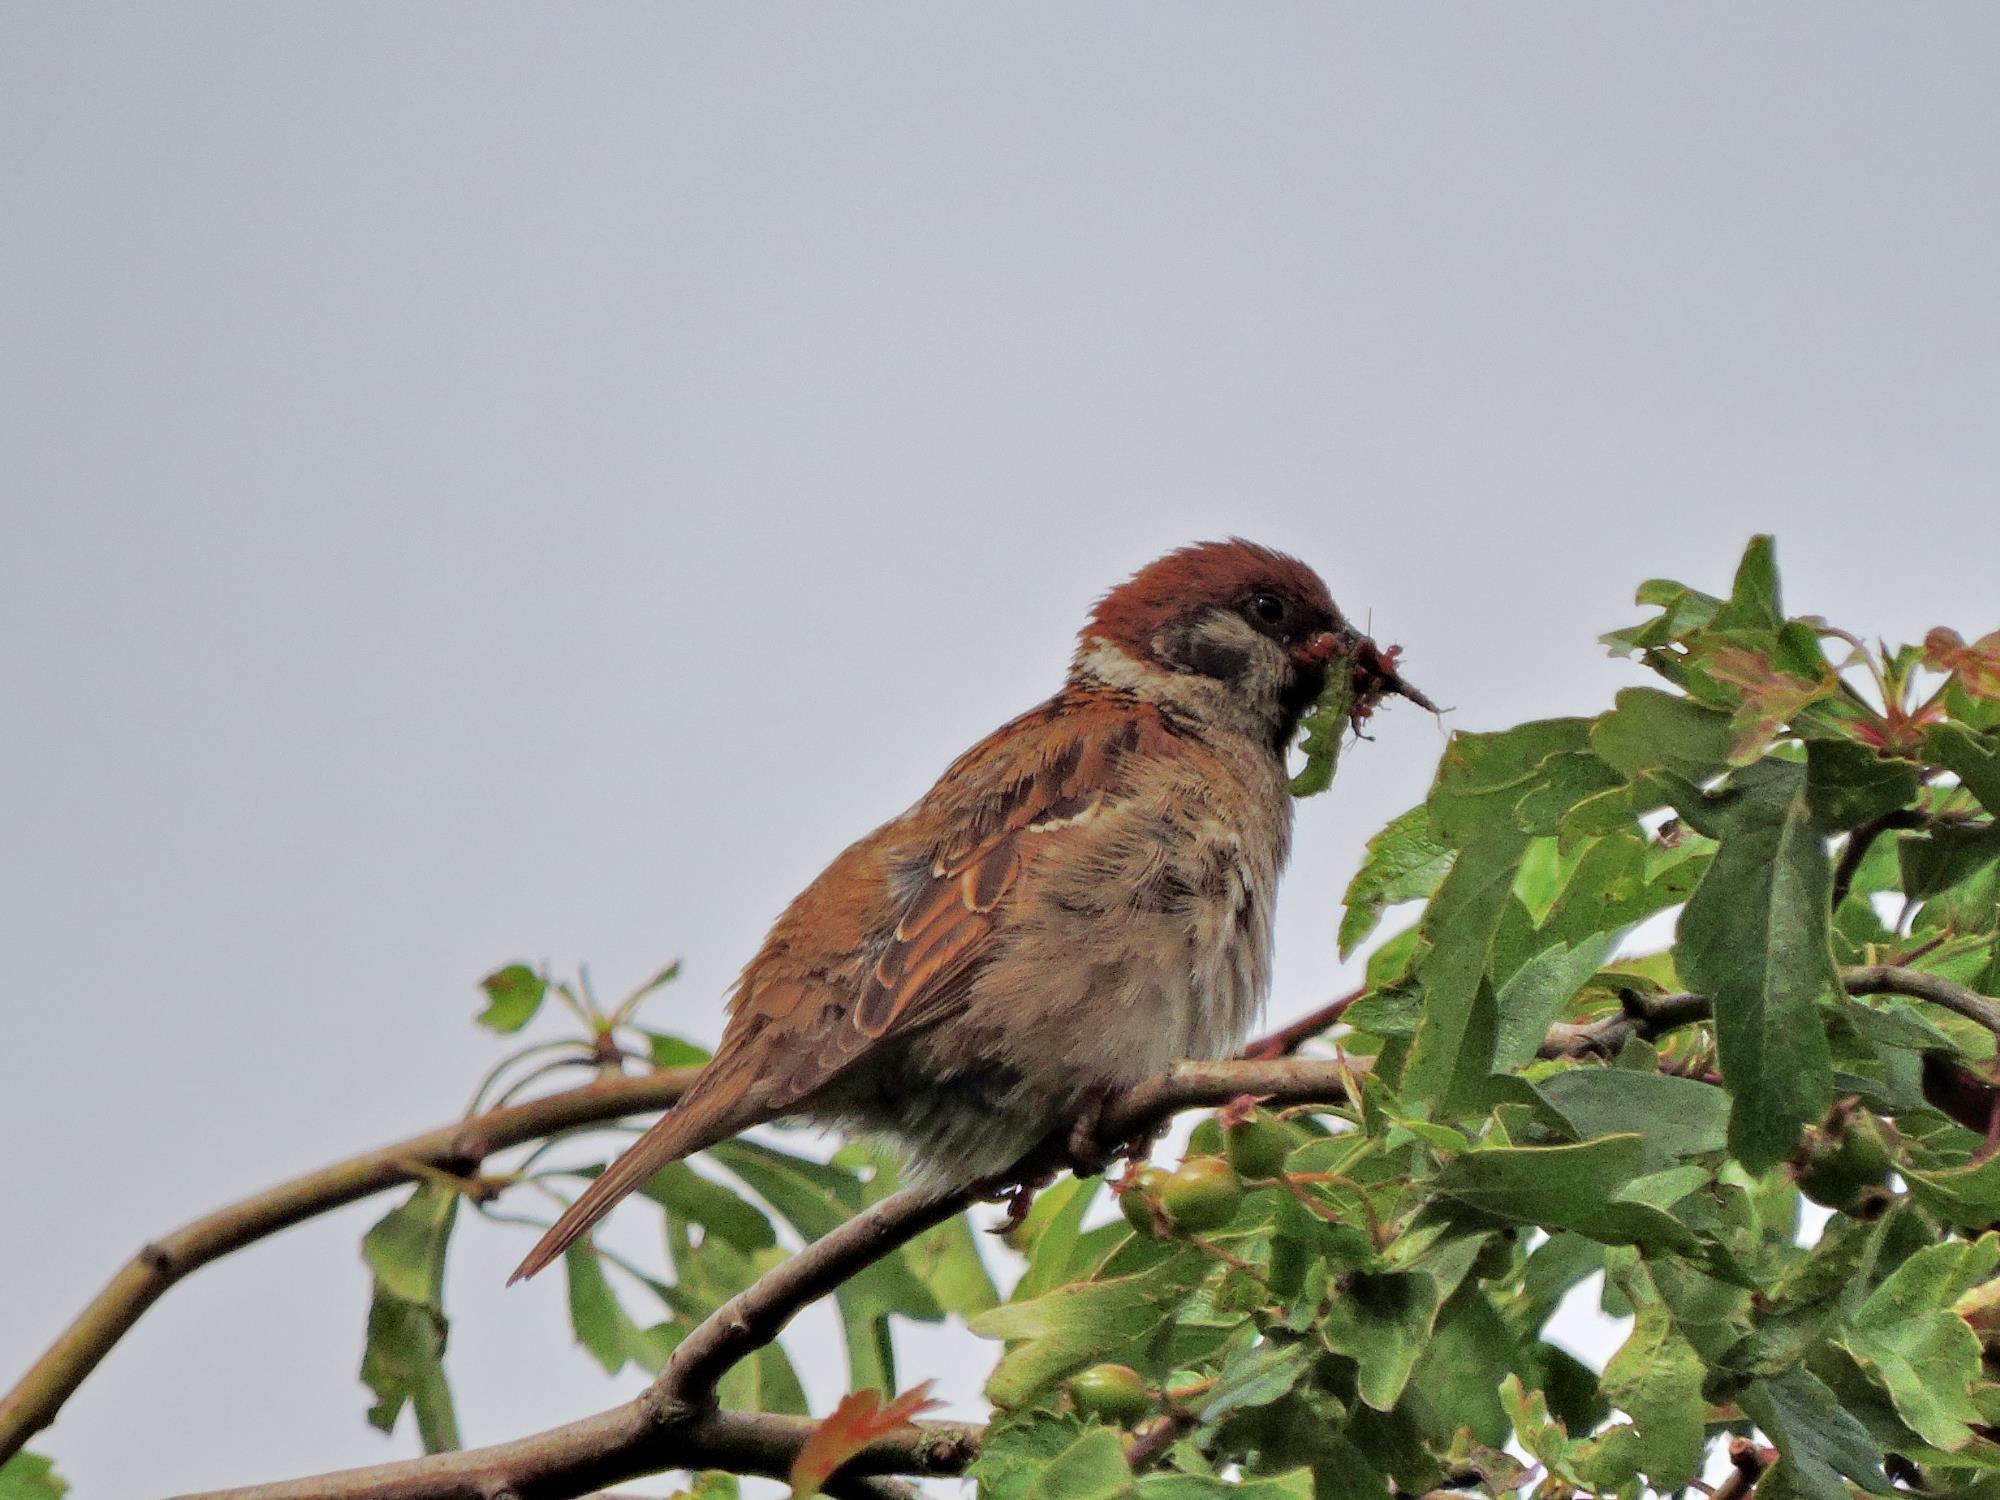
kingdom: Animalia
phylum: Chordata
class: Aves
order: Passeriformes
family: Passeridae
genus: Passer
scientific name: Passer montanus
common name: Eurasian tree sparrow
